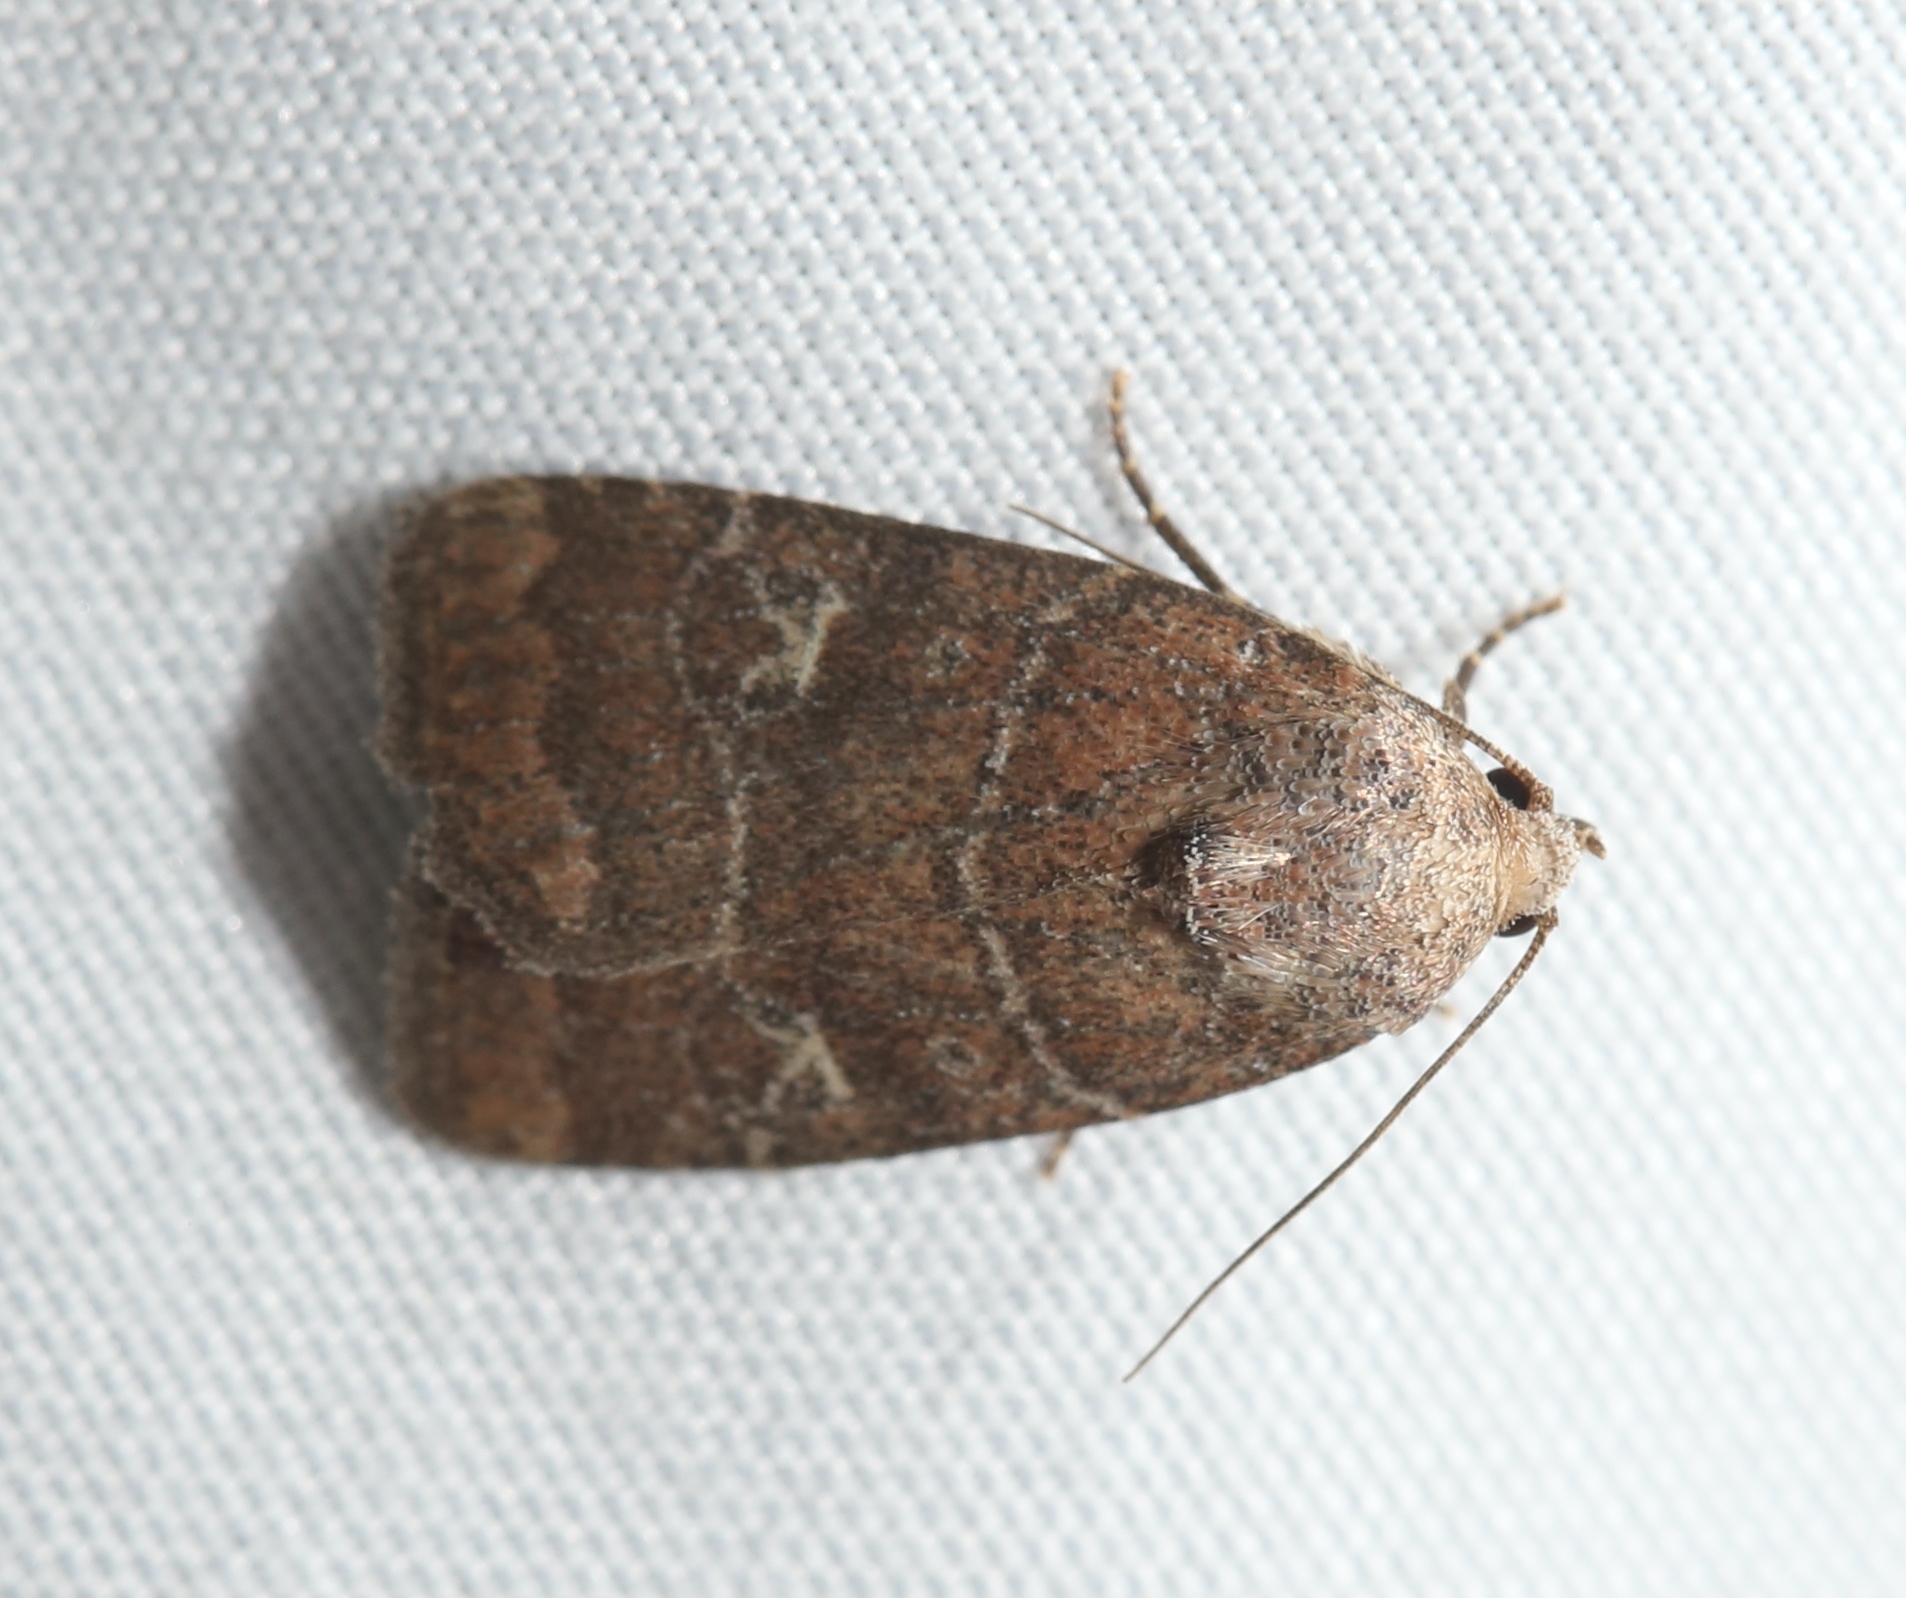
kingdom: Animalia
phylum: Arthropoda
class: Insecta
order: Lepidoptera
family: Noctuidae
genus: Elaphria
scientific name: Elaphria grata
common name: Grateful midget moth
